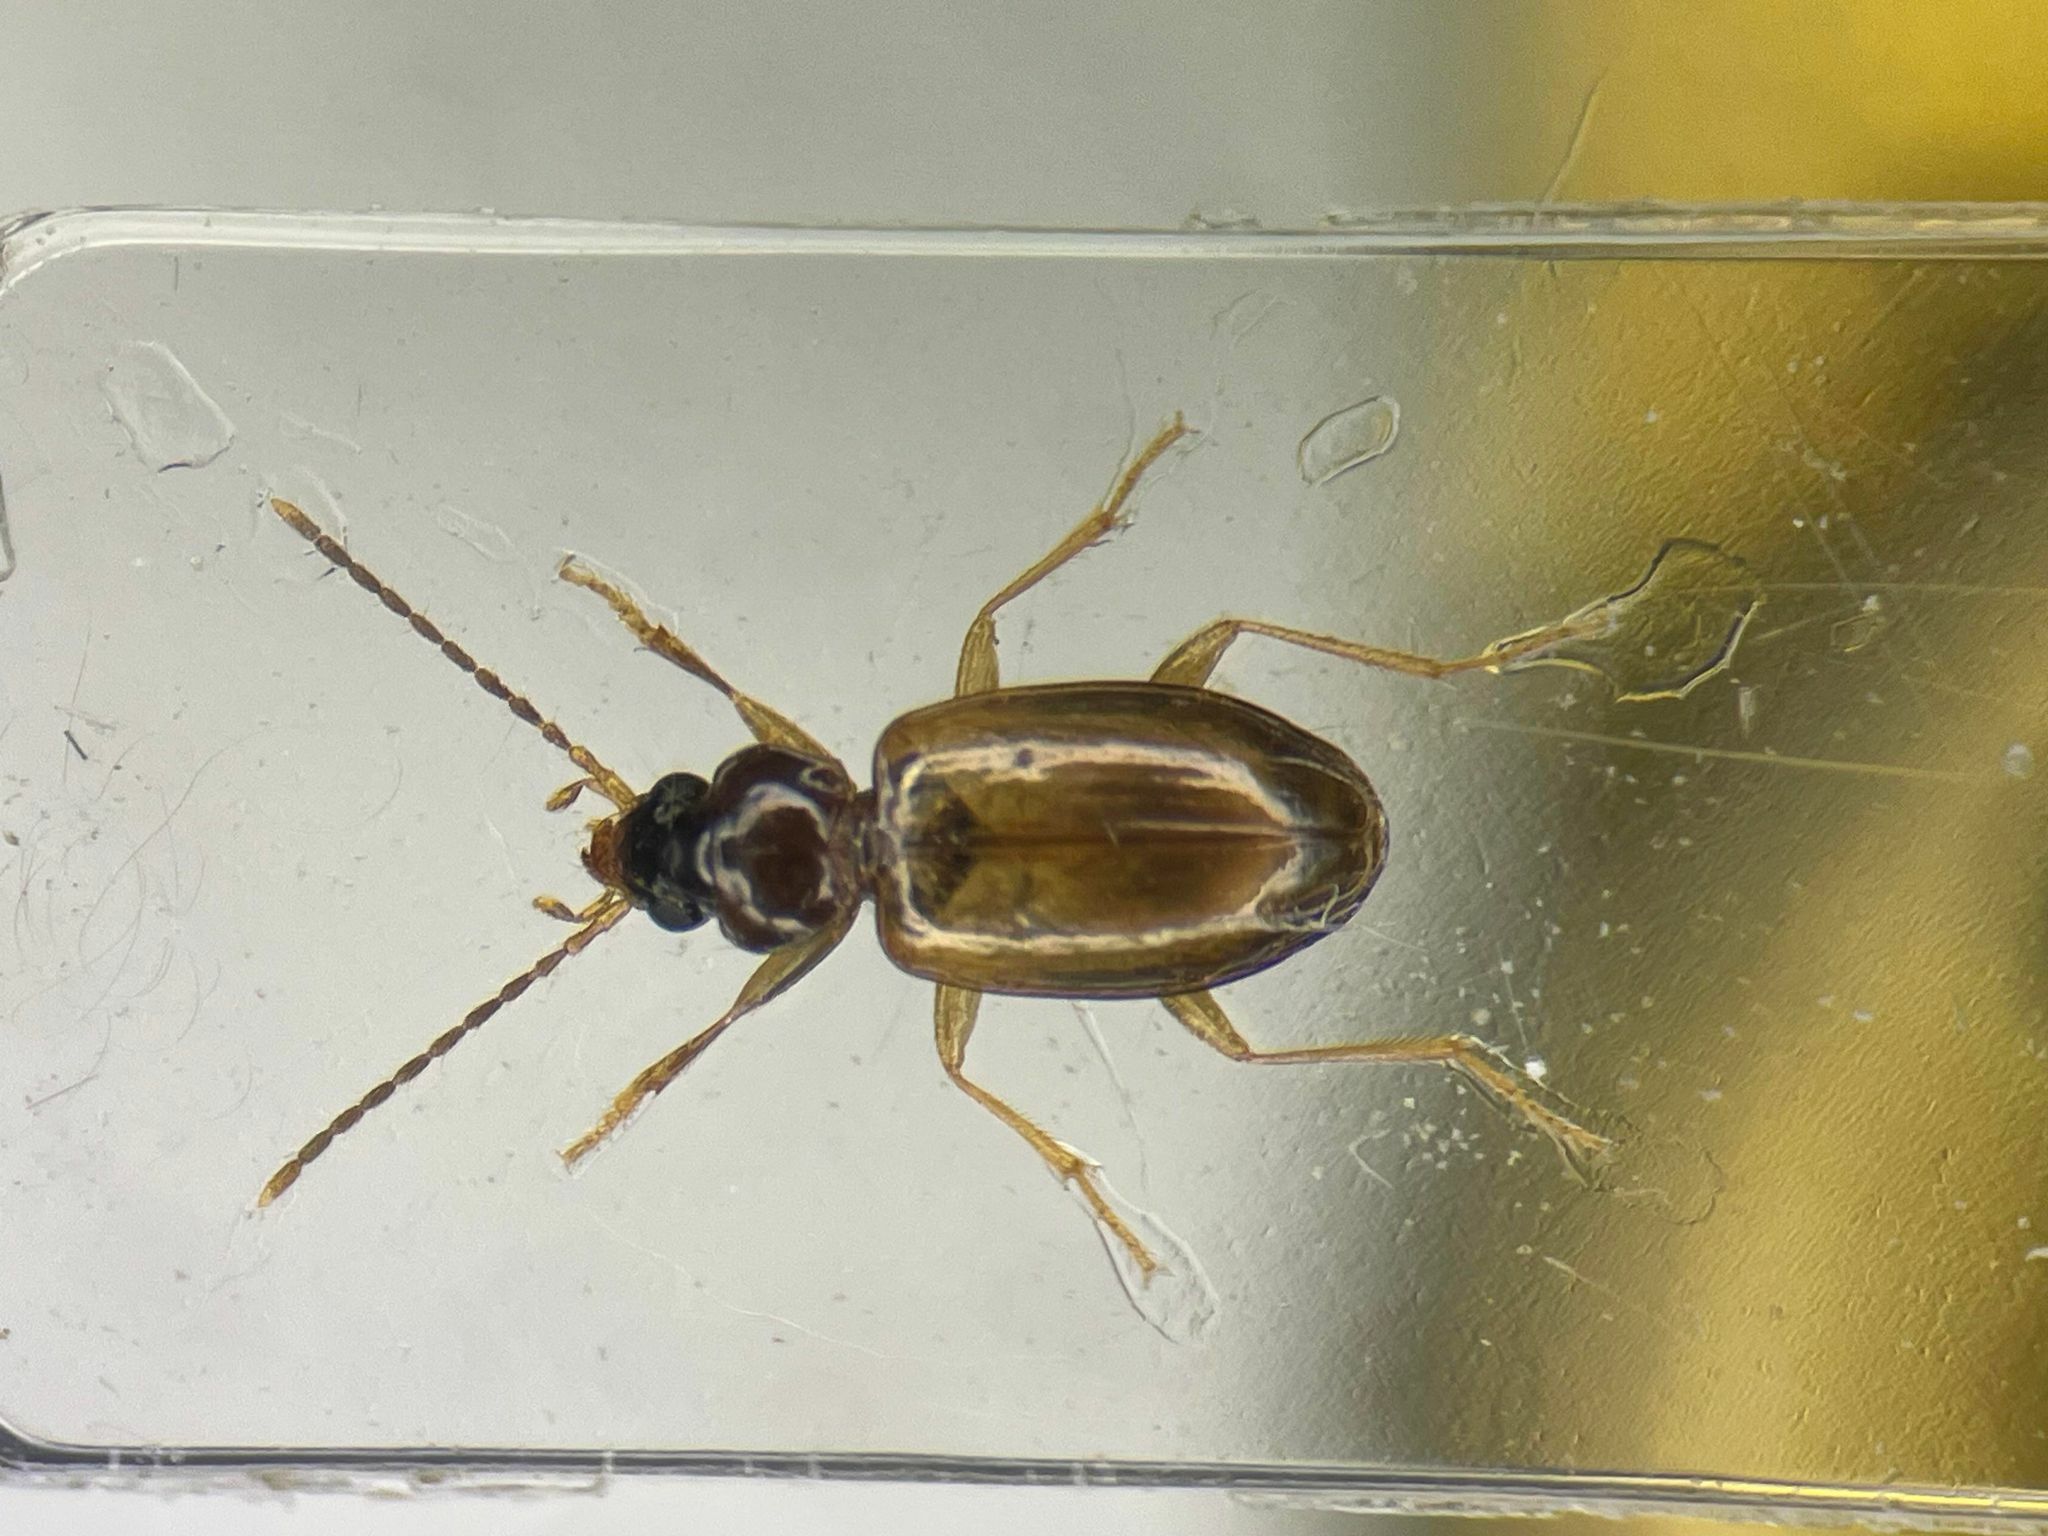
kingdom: Animalia
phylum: Arthropoda
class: Insecta
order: Coleoptera
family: Carabidae
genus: Tachys
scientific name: Tachys proximus
